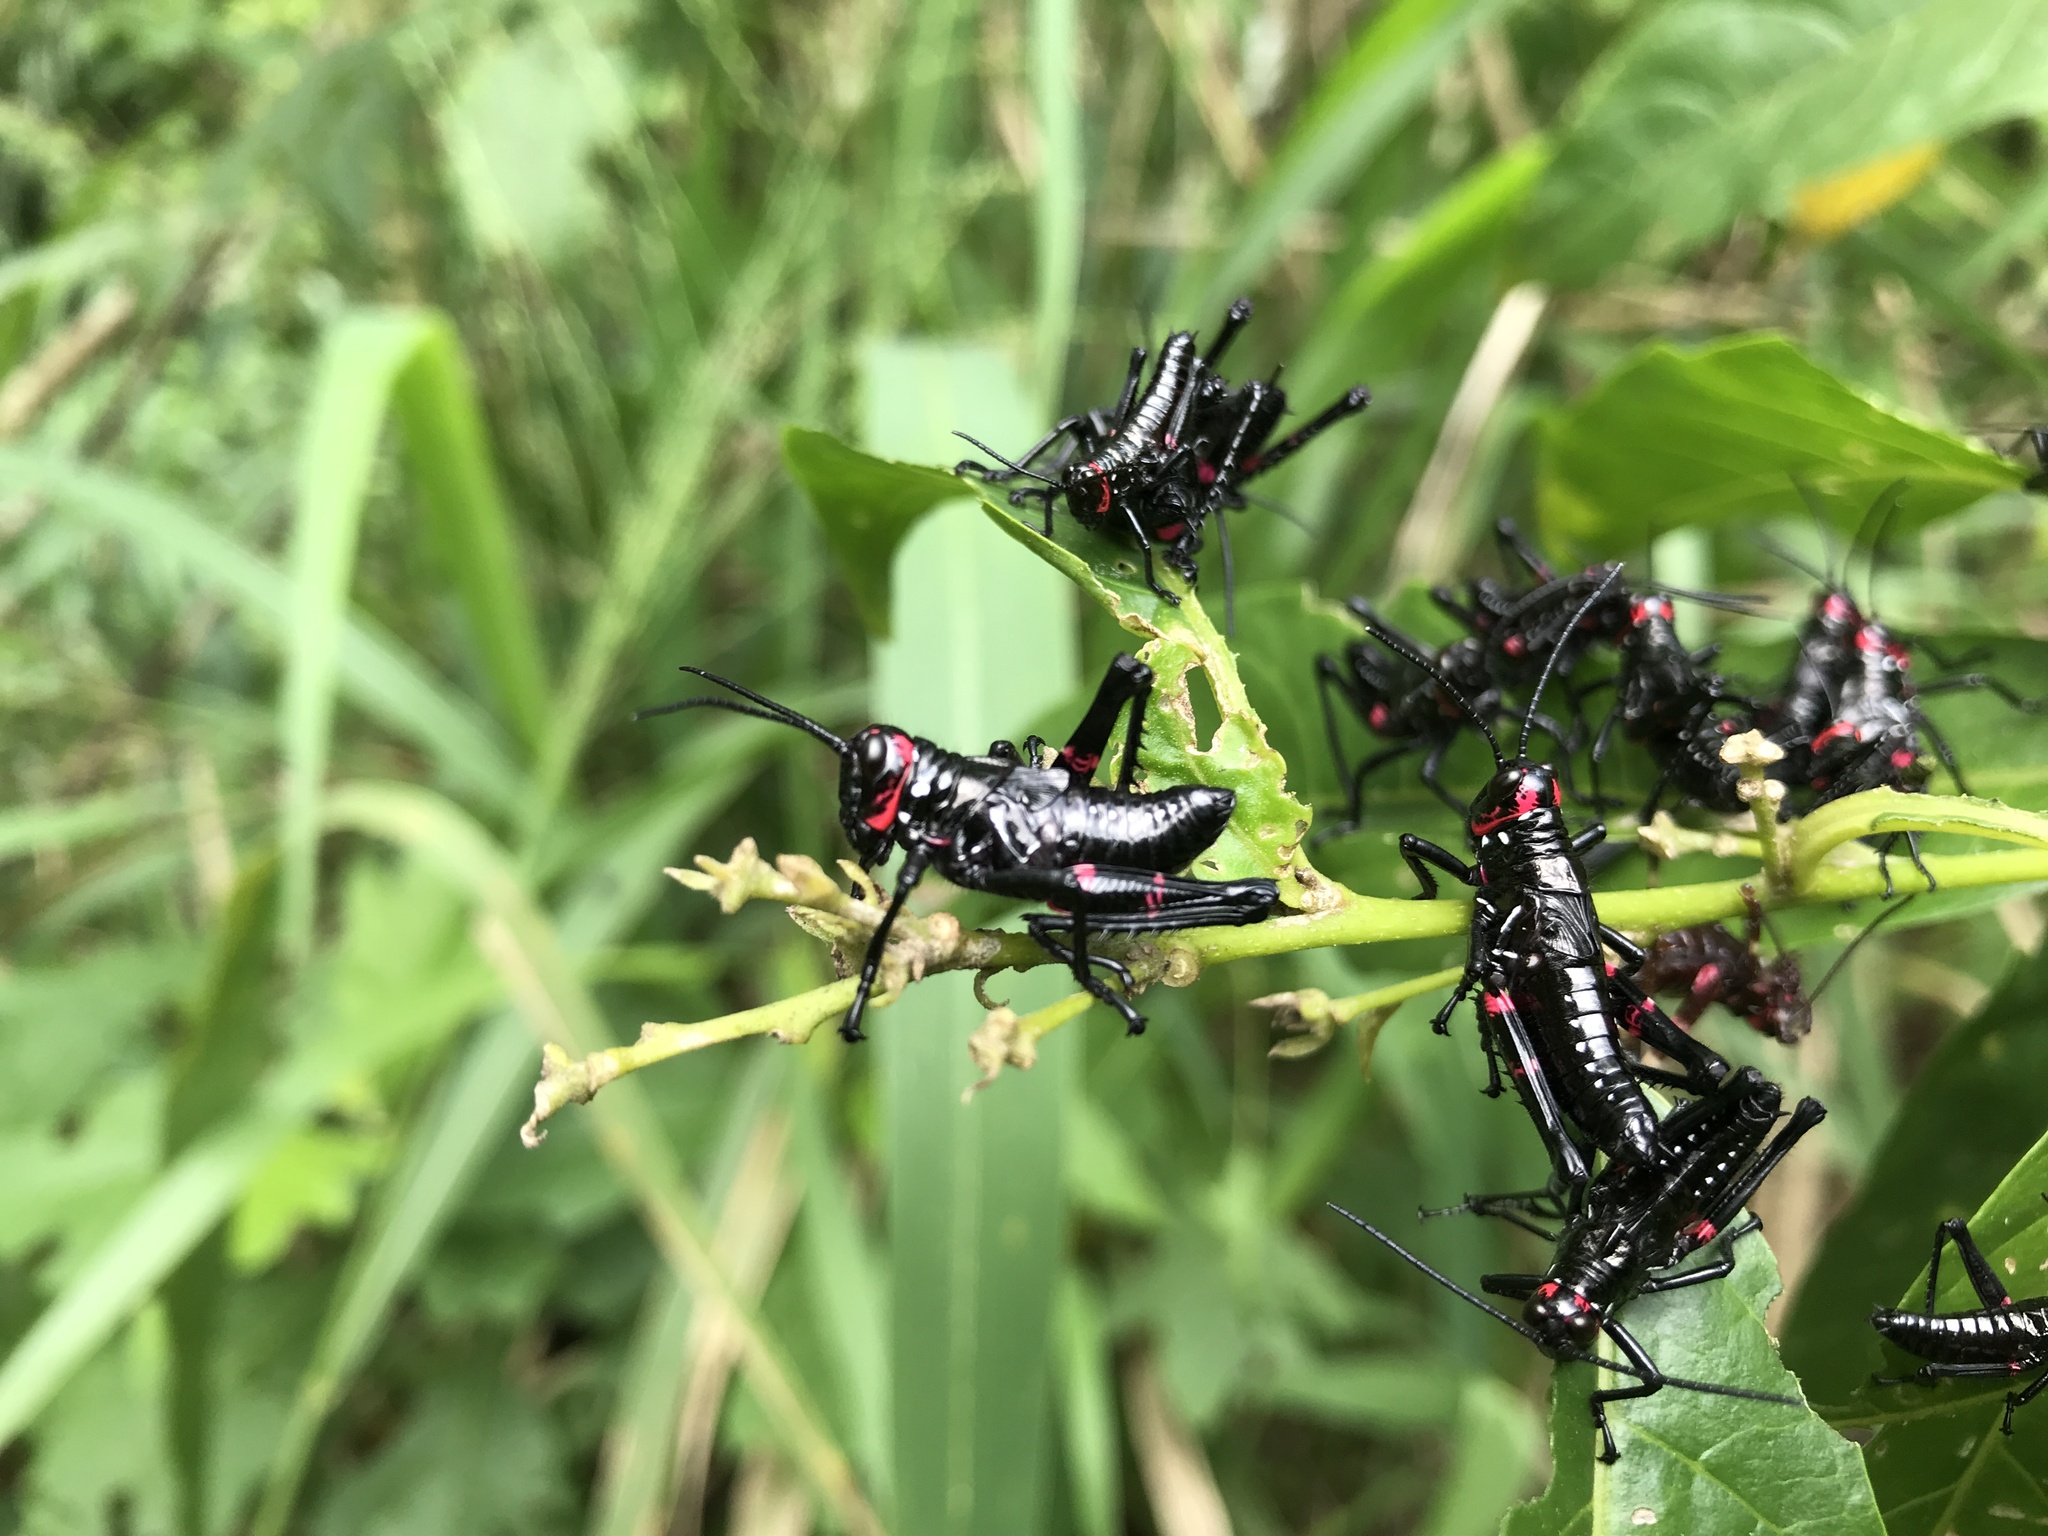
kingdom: Animalia
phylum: Arthropoda
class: Insecta
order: Orthoptera
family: Romaleidae
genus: Chromacris
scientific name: Chromacris speciosa
